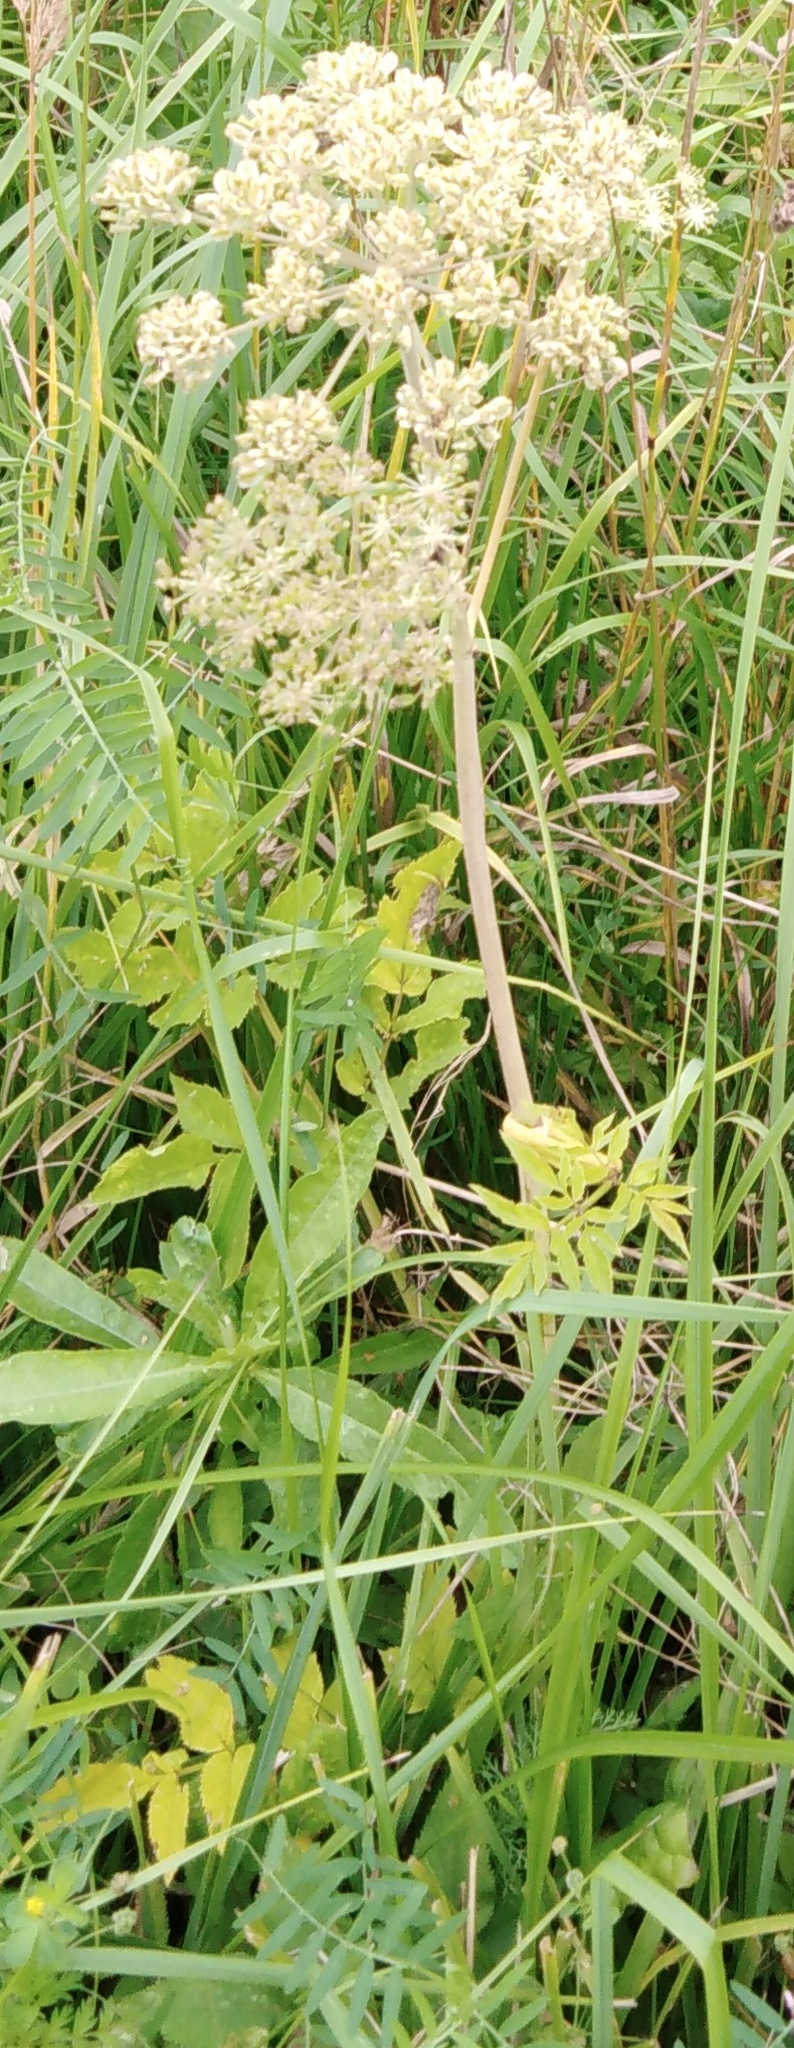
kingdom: Plantae
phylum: Tracheophyta
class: Magnoliopsida
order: Apiales
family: Apiaceae
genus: Angelica
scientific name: Angelica sylvestris
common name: Wild angelica
